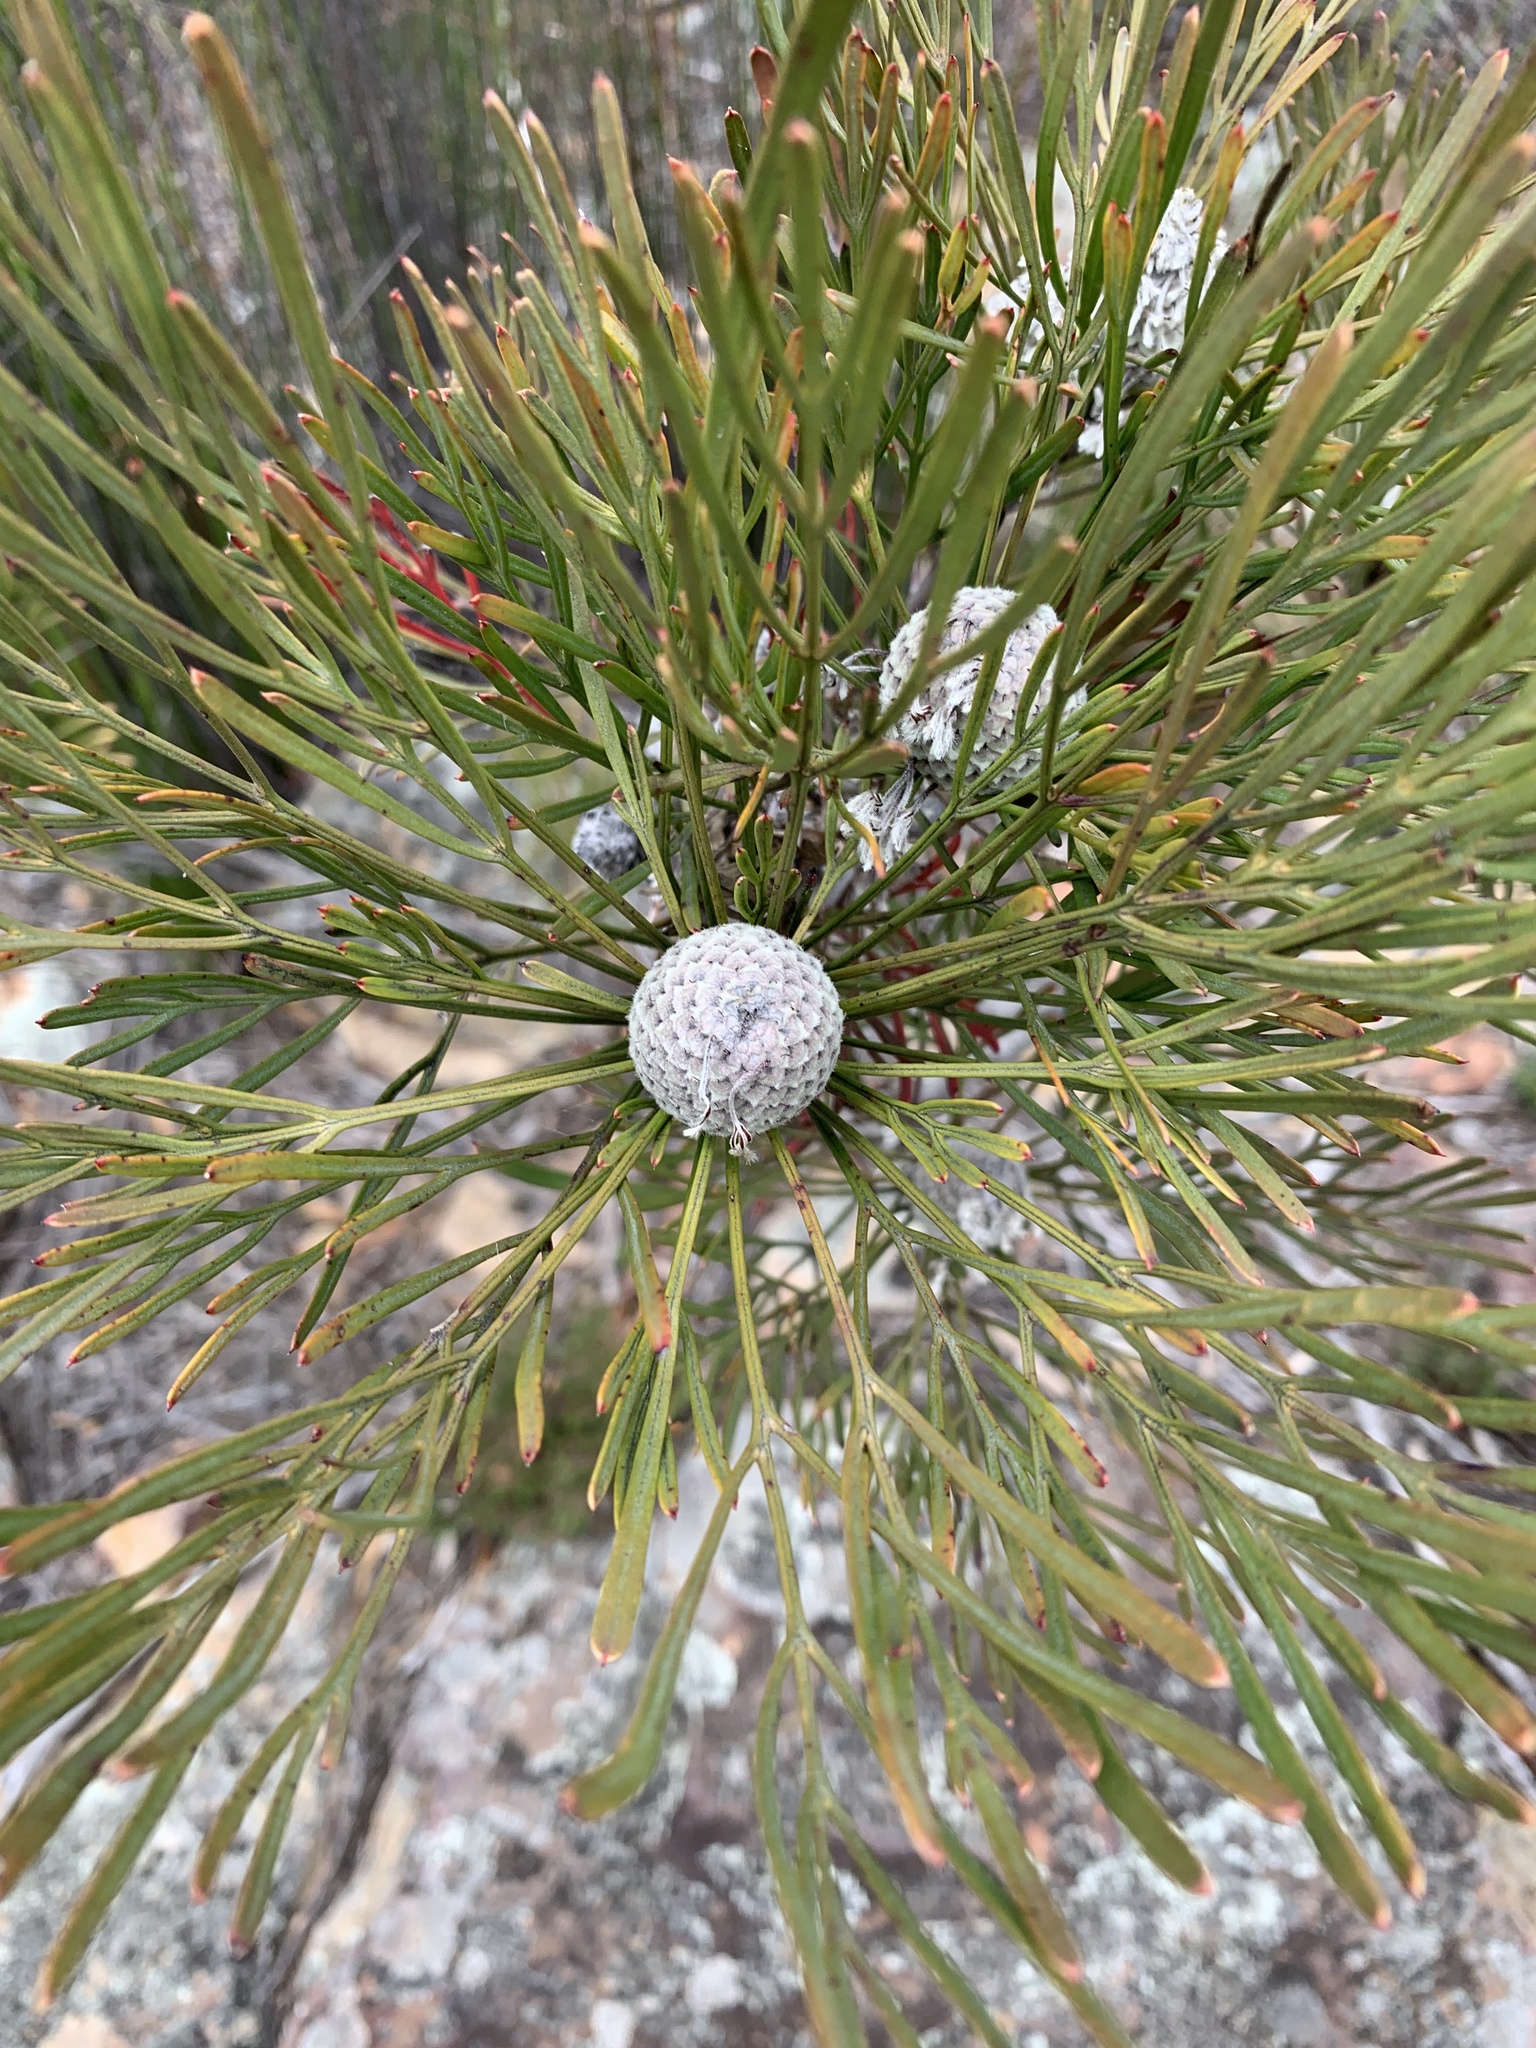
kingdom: Plantae
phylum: Tracheophyta
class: Magnoliopsida
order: Proteales
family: Proteaceae
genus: Isopogon
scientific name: Isopogon dawsonii
